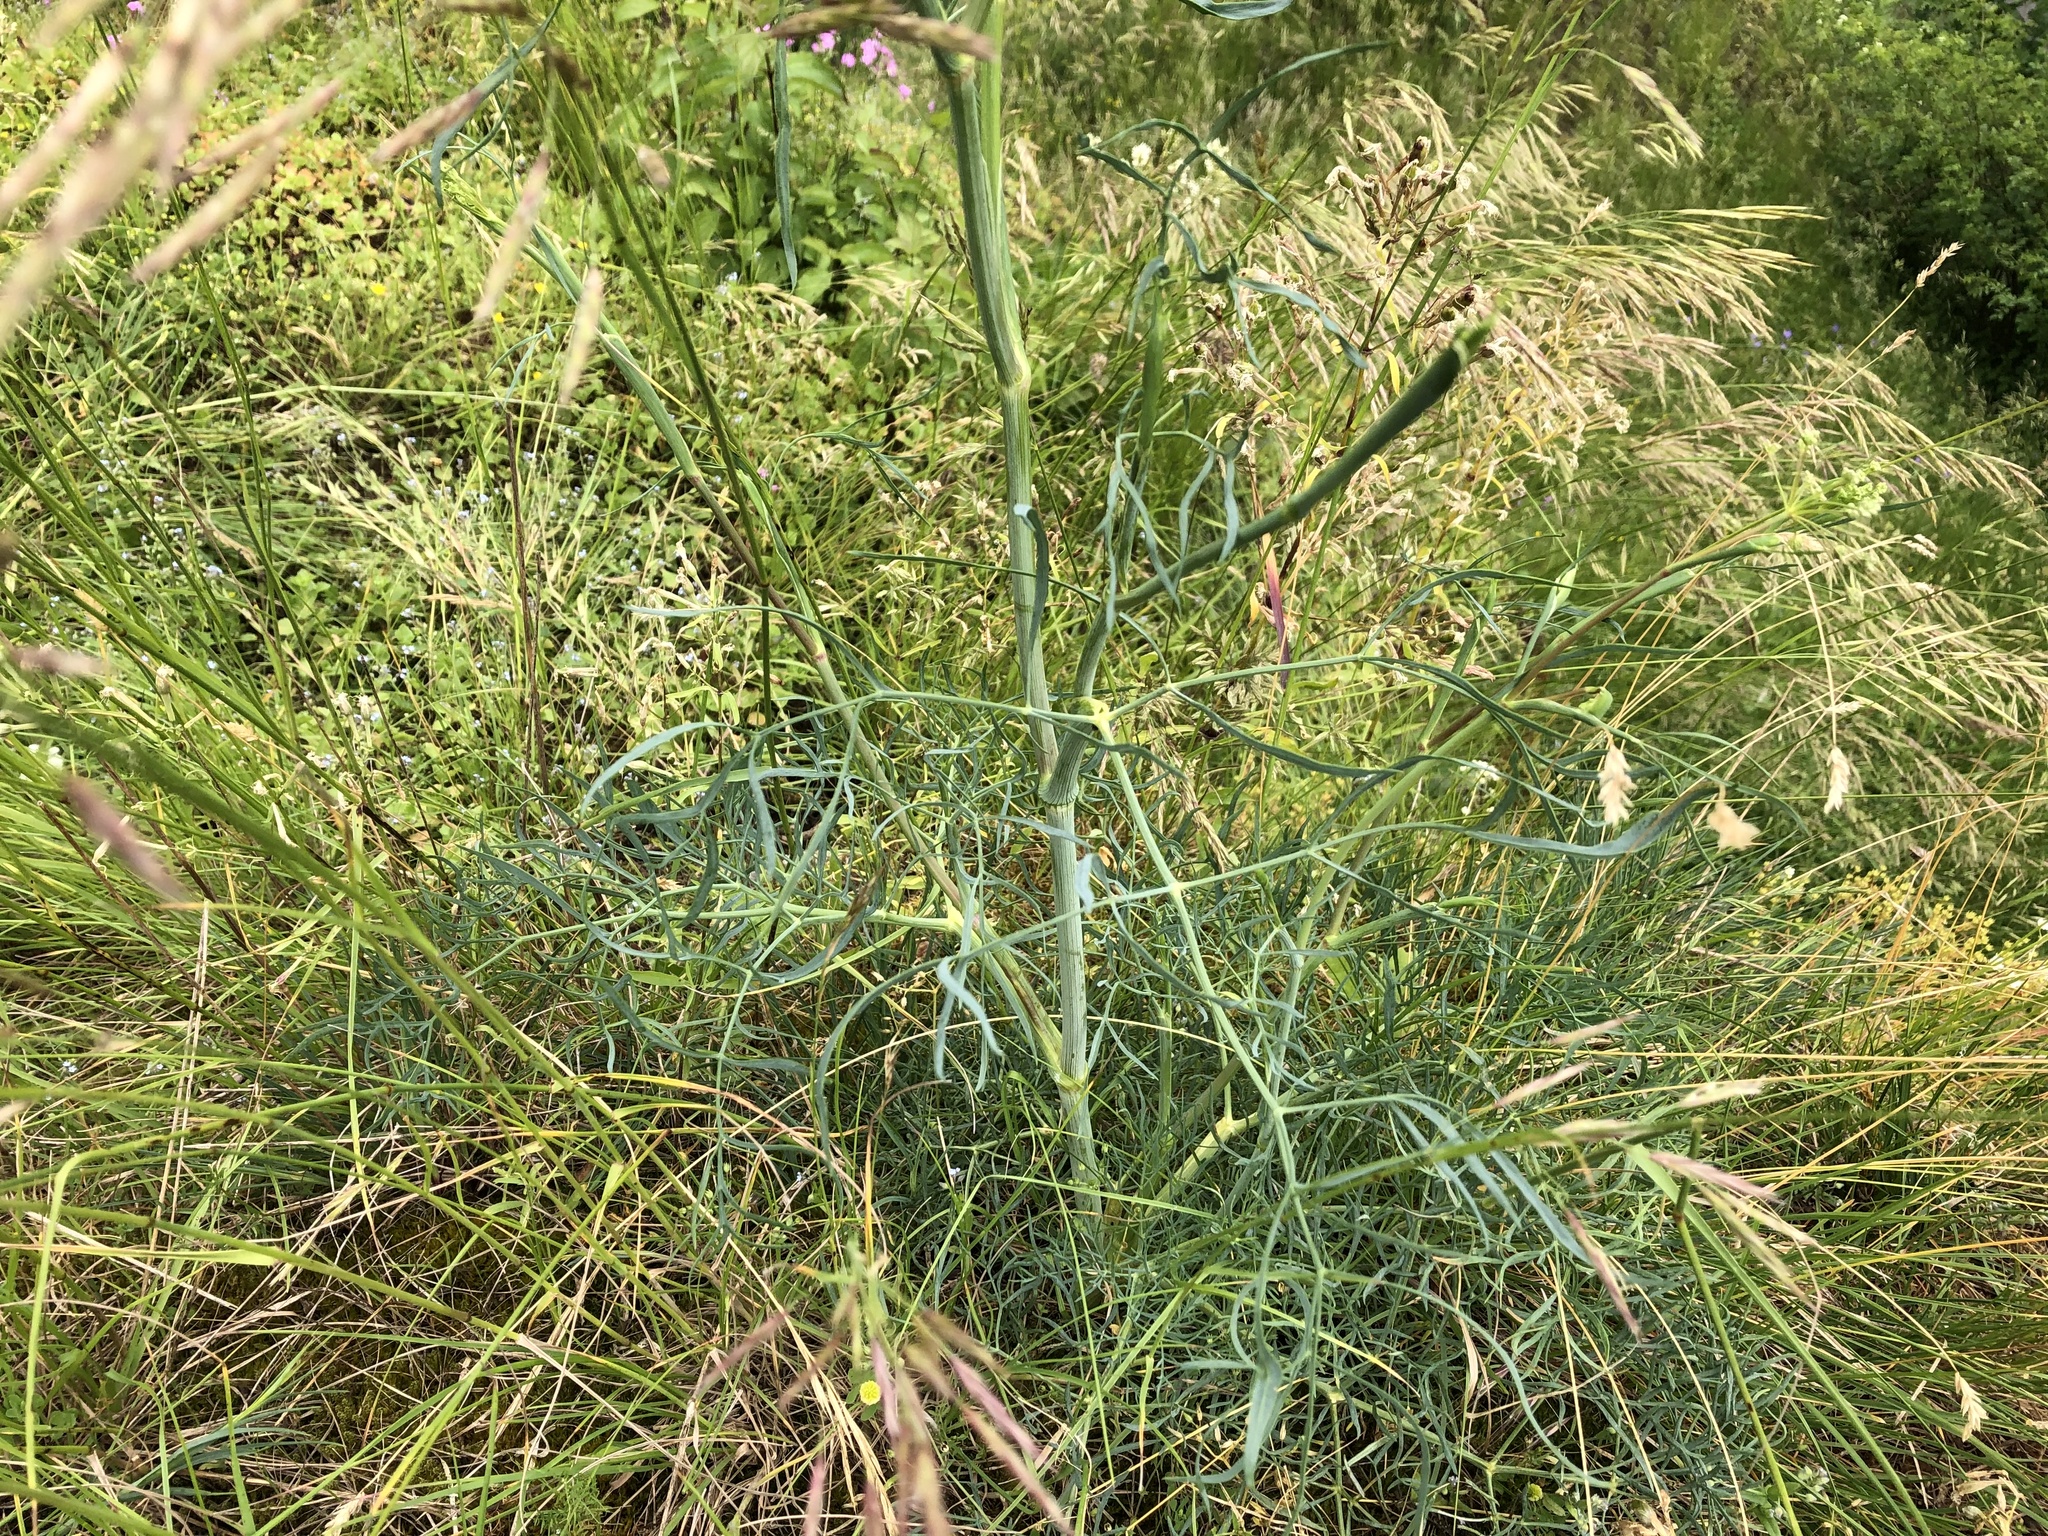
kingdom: Plantae
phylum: Tracheophyta
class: Magnoliopsida
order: Apiales
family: Apiaceae
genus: Seseli
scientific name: Seseli osseum
